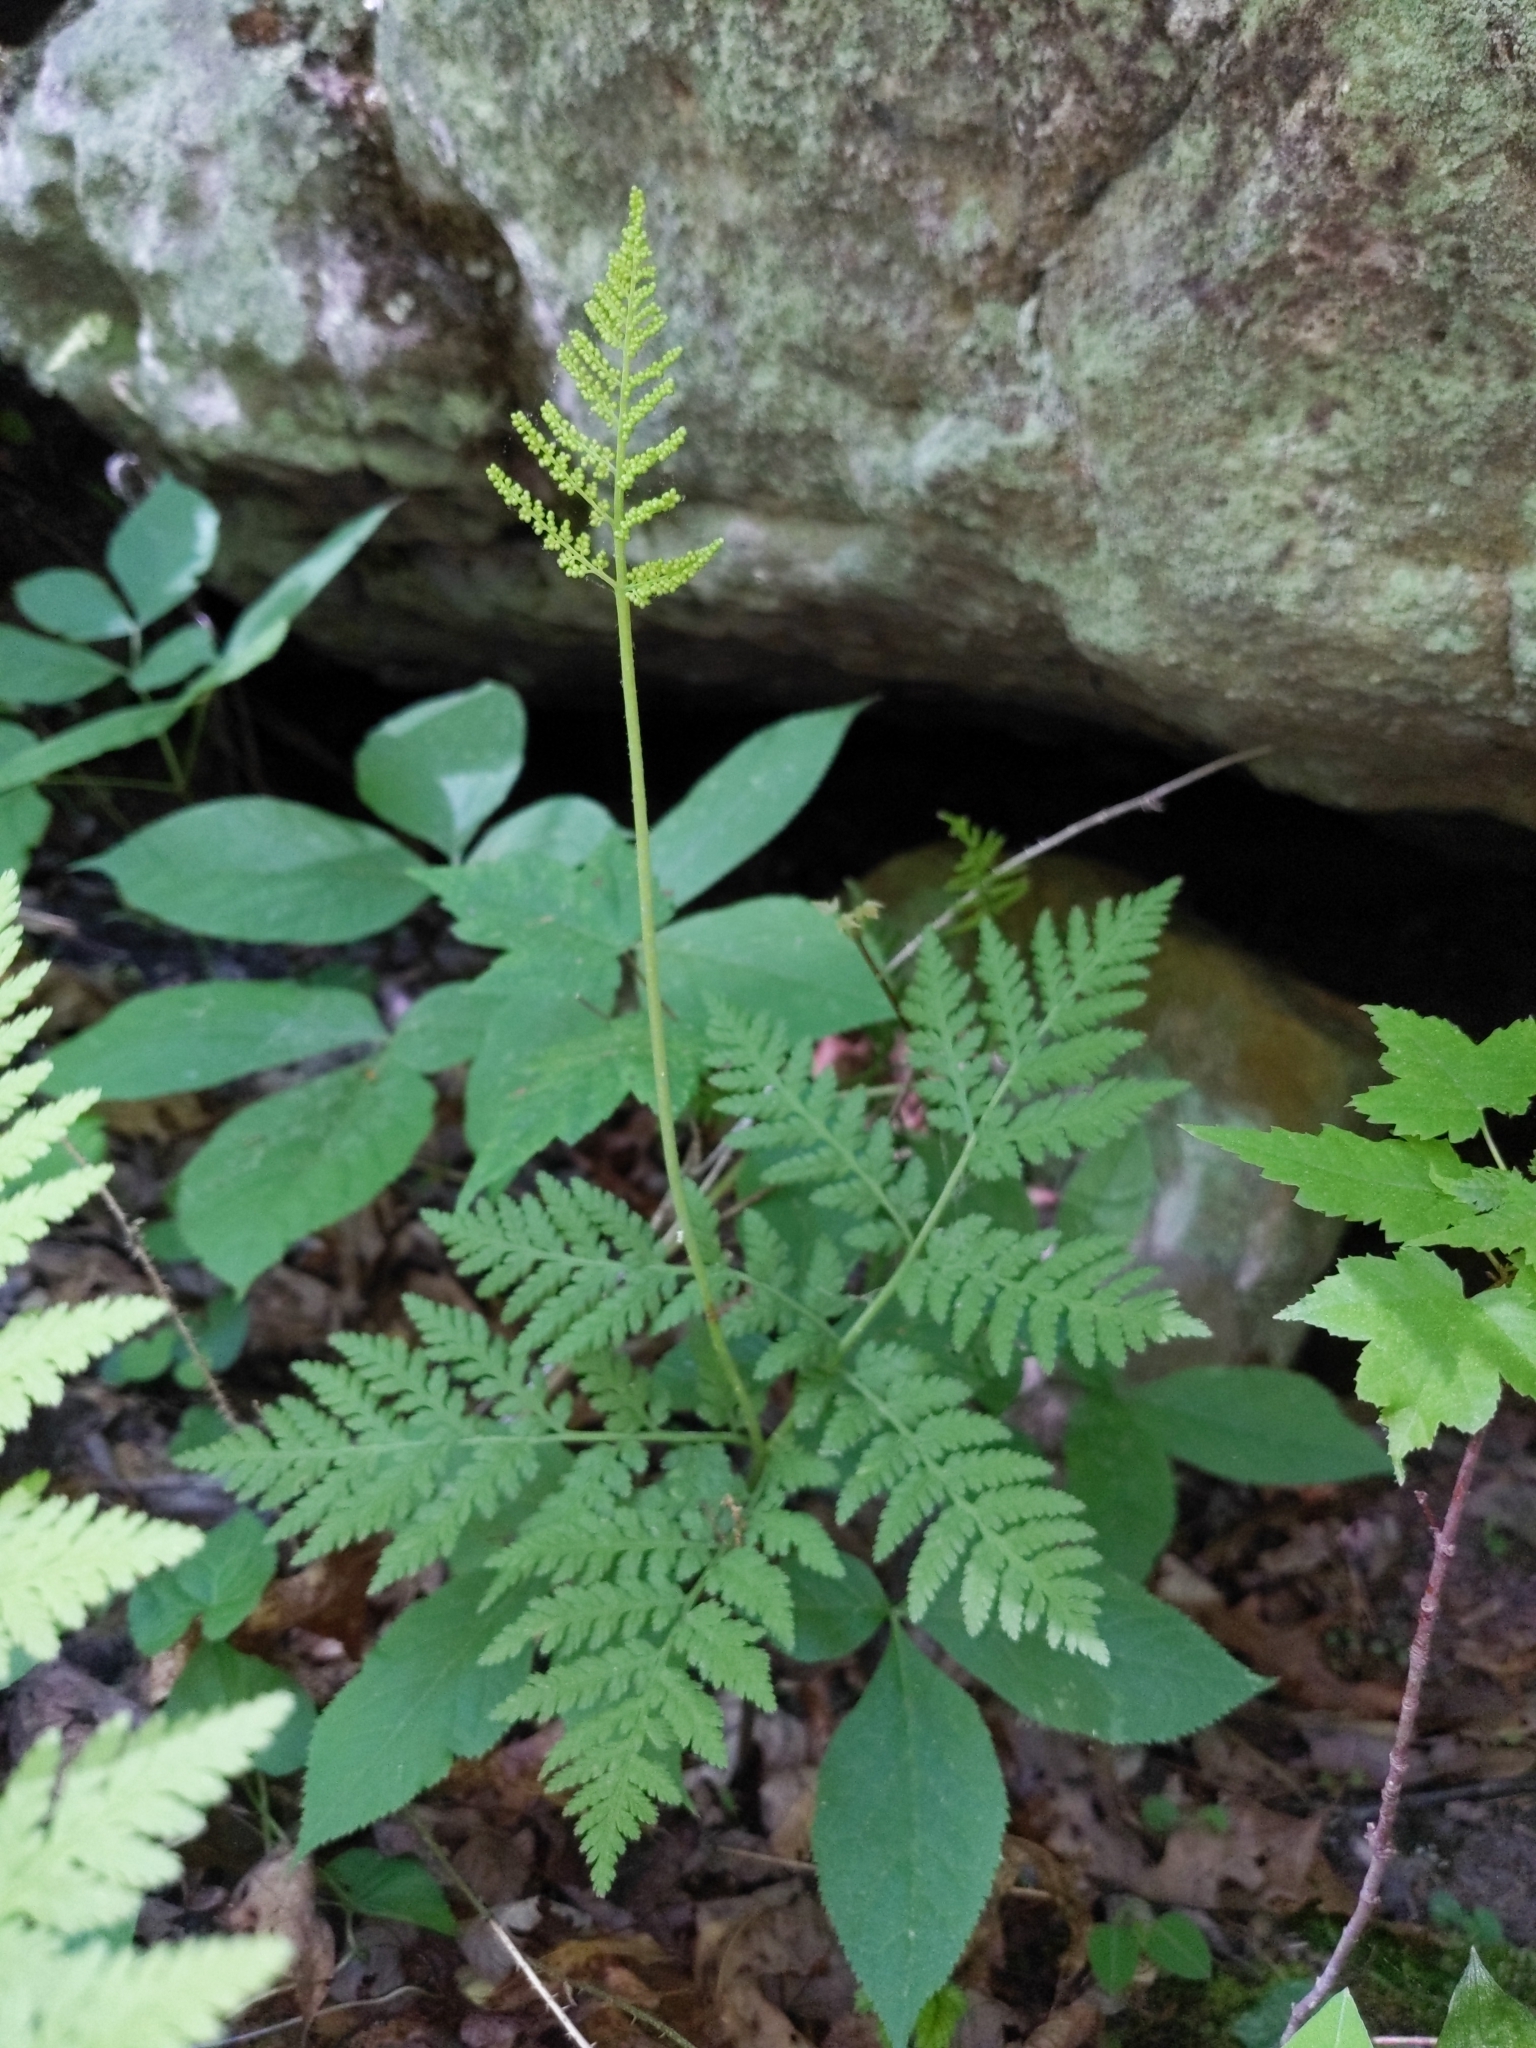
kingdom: Plantae
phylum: Tracheophyta
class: Polypodiopsida
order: Ophioglossales
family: Ophioglossaceae
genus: Botrypus
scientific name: Botrypus virginianus
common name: Common grapefern
